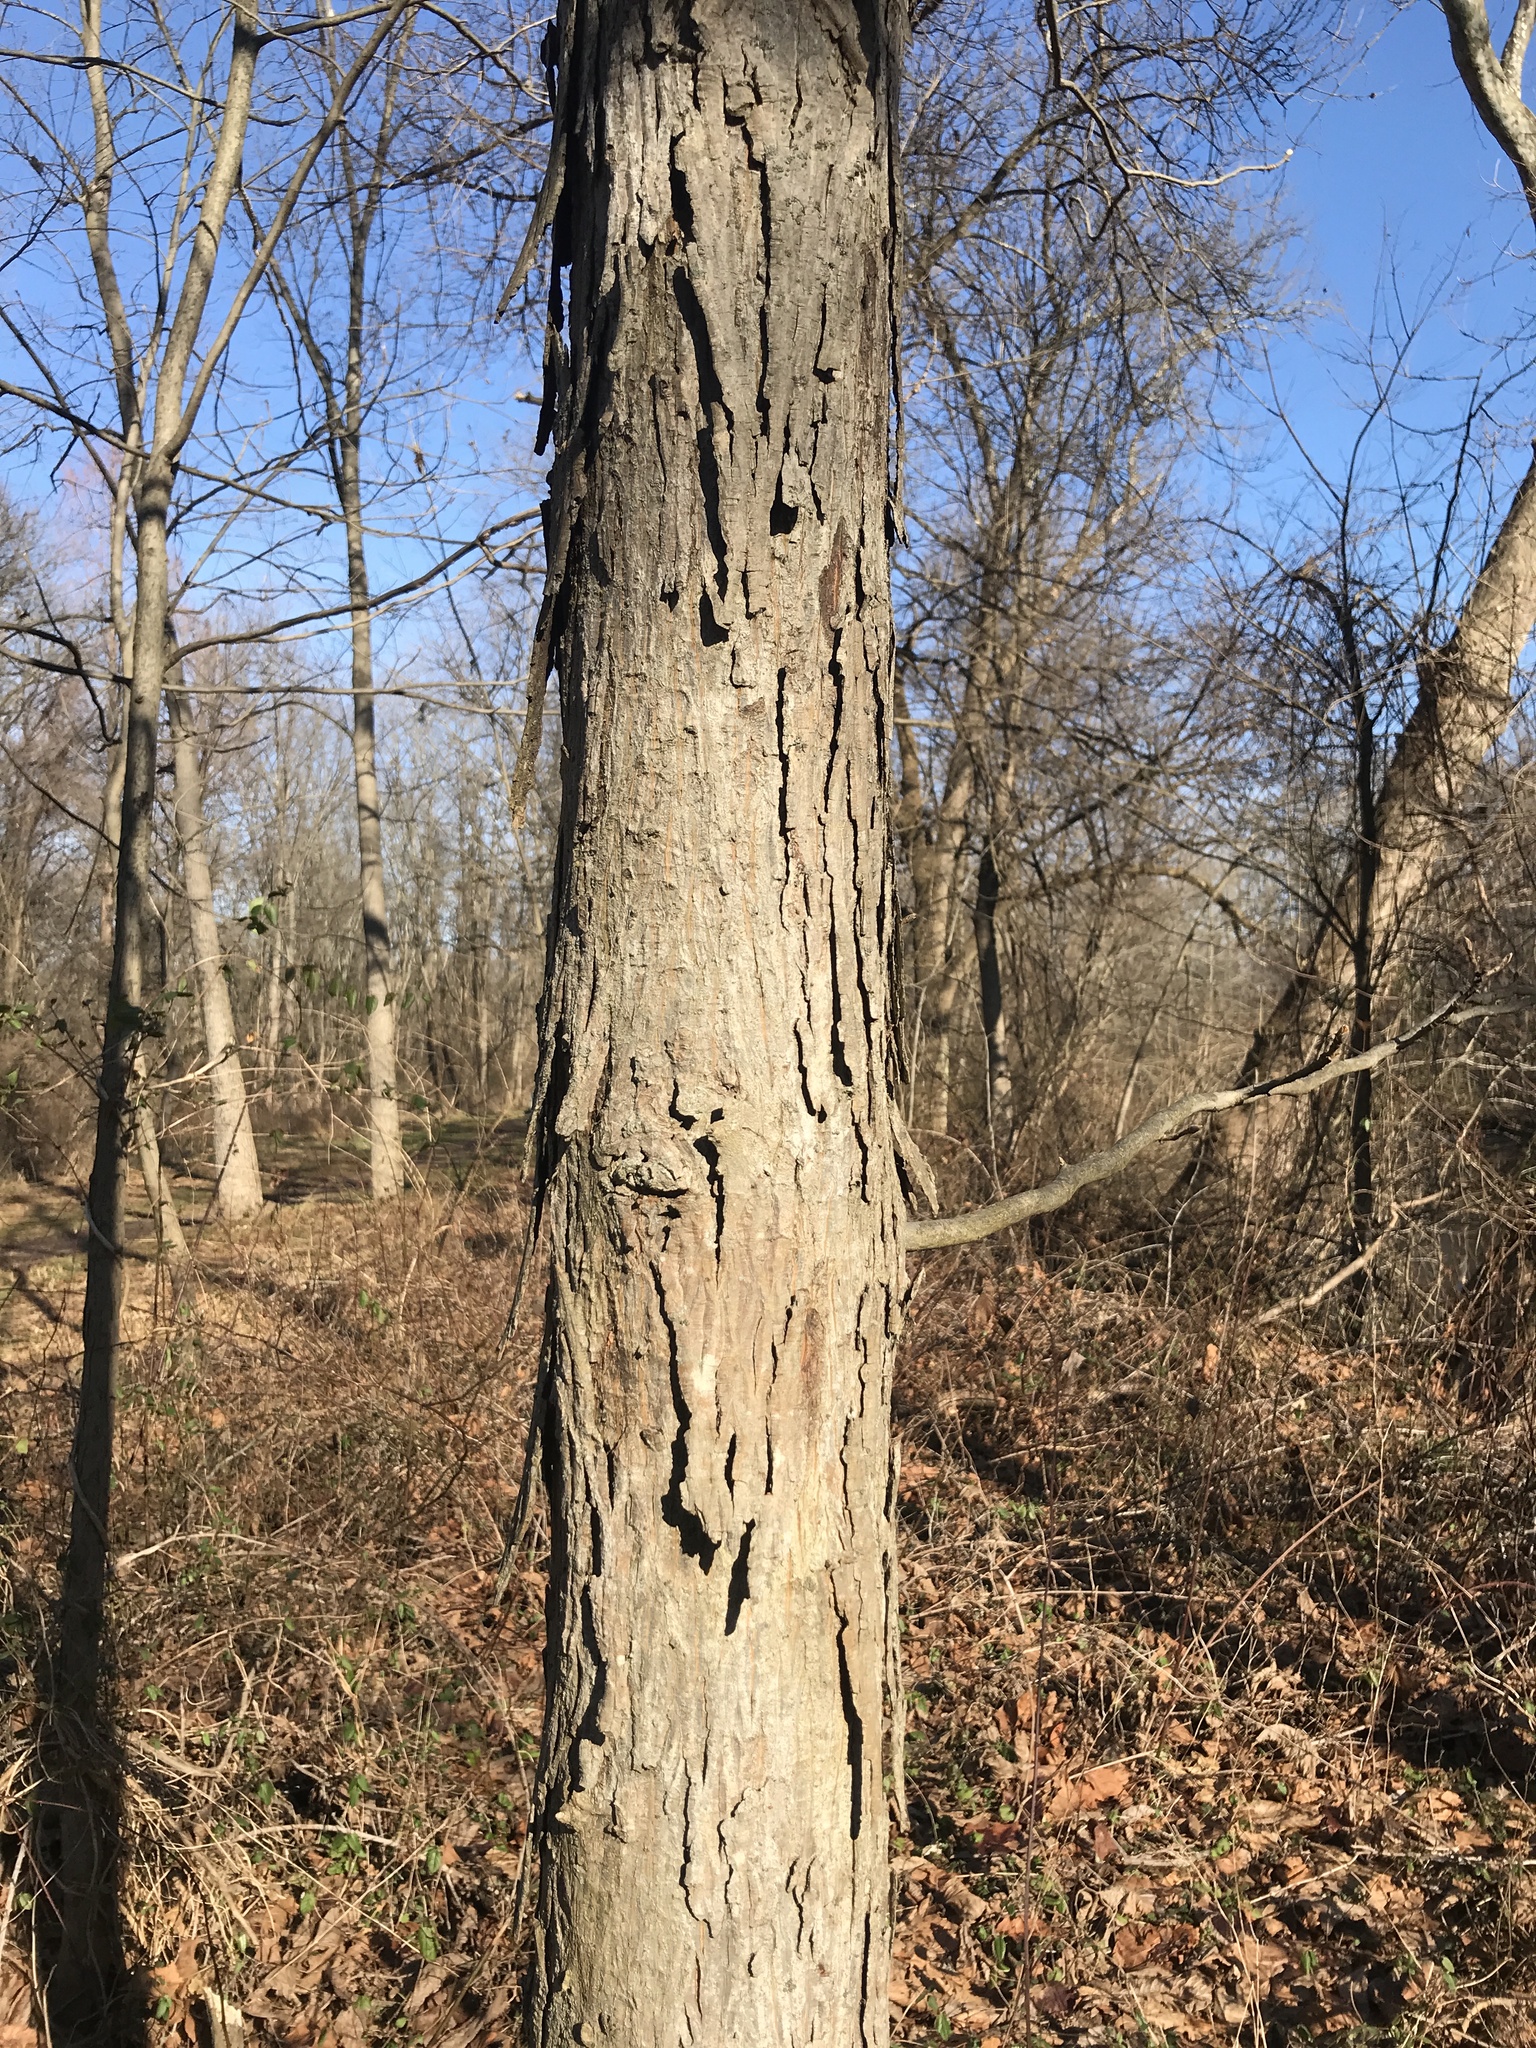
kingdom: Plantae
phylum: Tracheophyta
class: Magnoliopsida
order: Fagales
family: Juglandaceae
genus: Carya
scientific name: Carya ovata
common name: Shagbark hickory
